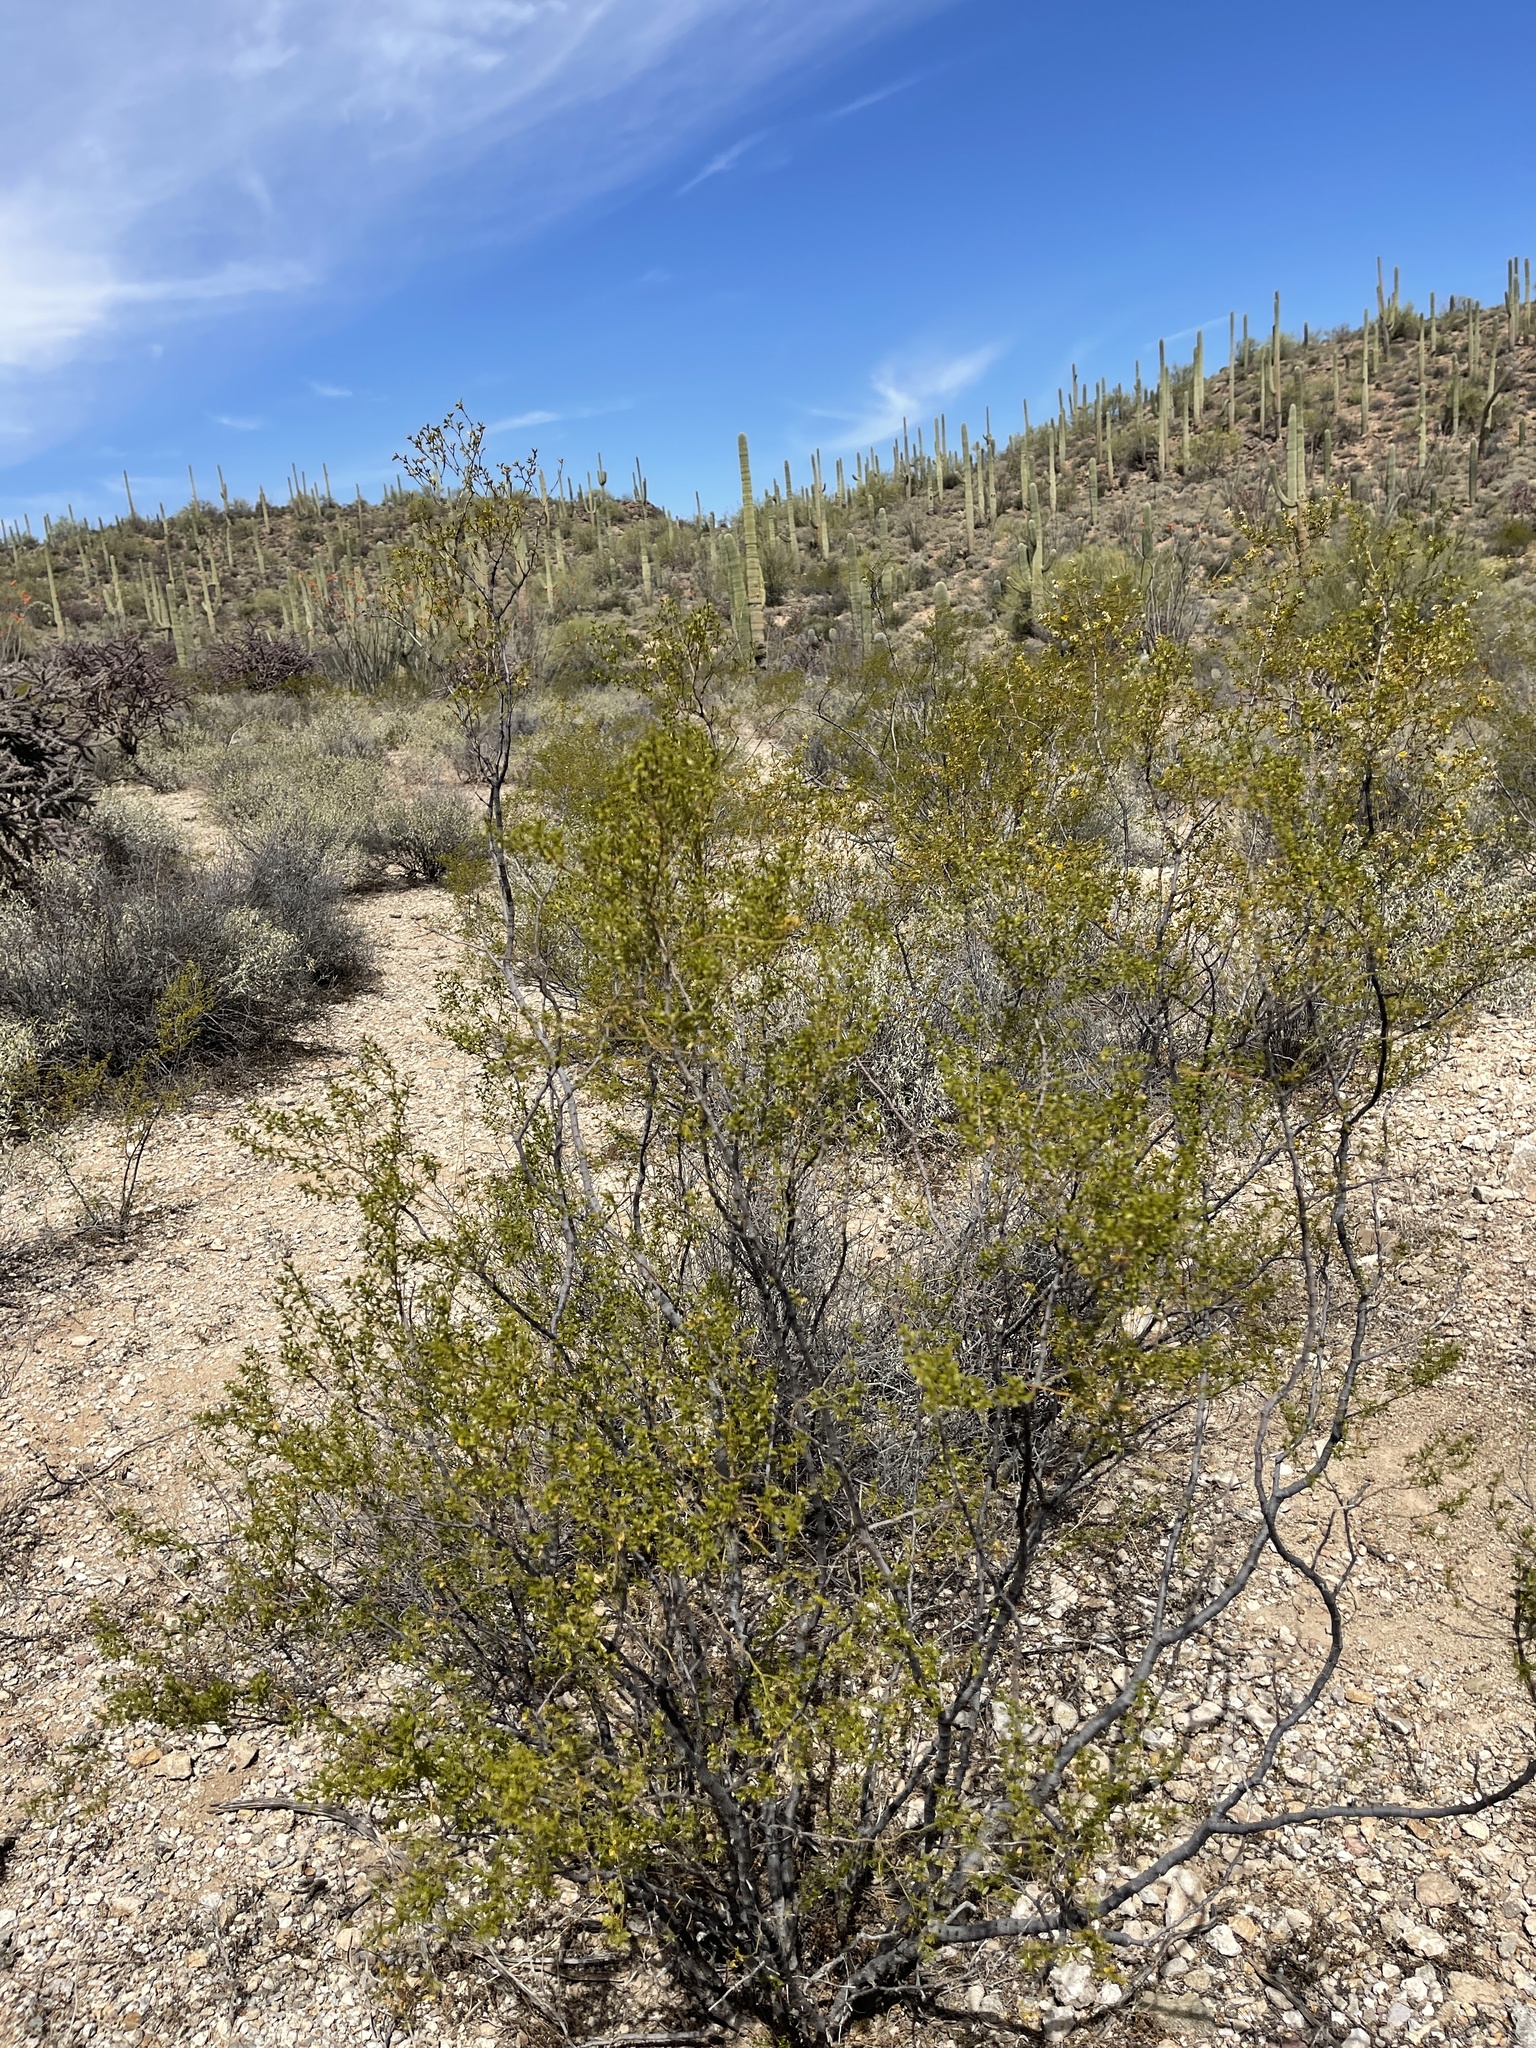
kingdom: Plantae
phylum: Tracheophyta
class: Magnoliopsida
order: Zygophyllales
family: Zygophyllaceae
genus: Larrea
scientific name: Larrea tridentata
